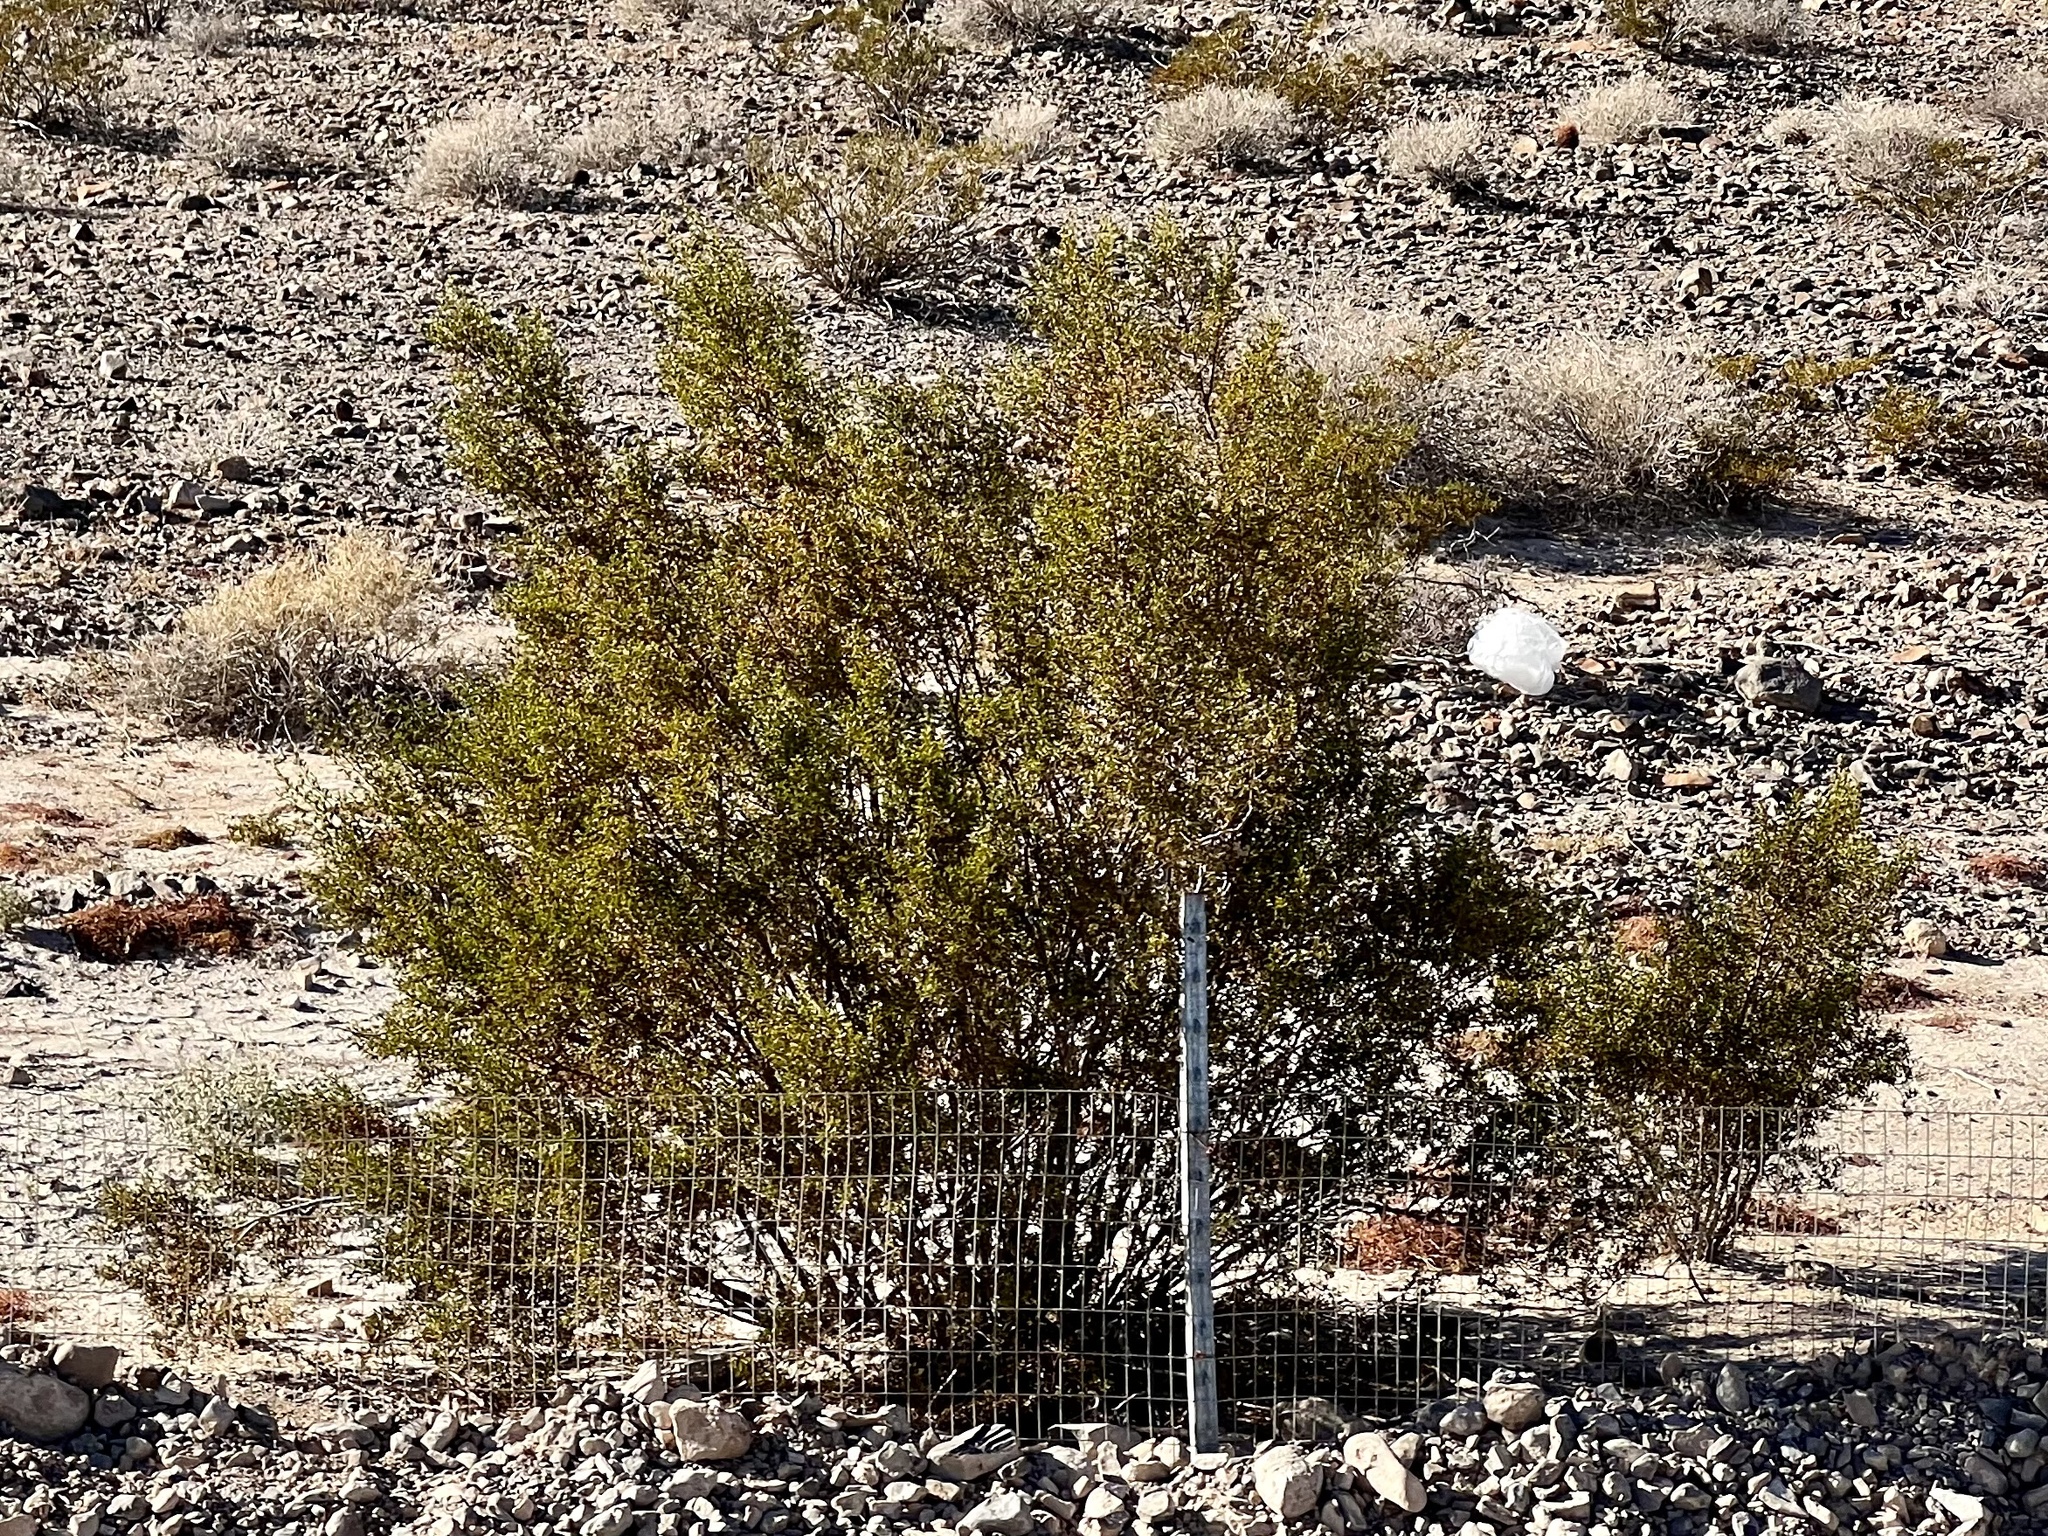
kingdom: Plantae
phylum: Tracheophyta
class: Magnoliopsida
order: Zygophyllales
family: Zygophyllaceae
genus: Larrea
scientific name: Larrea tridentata
